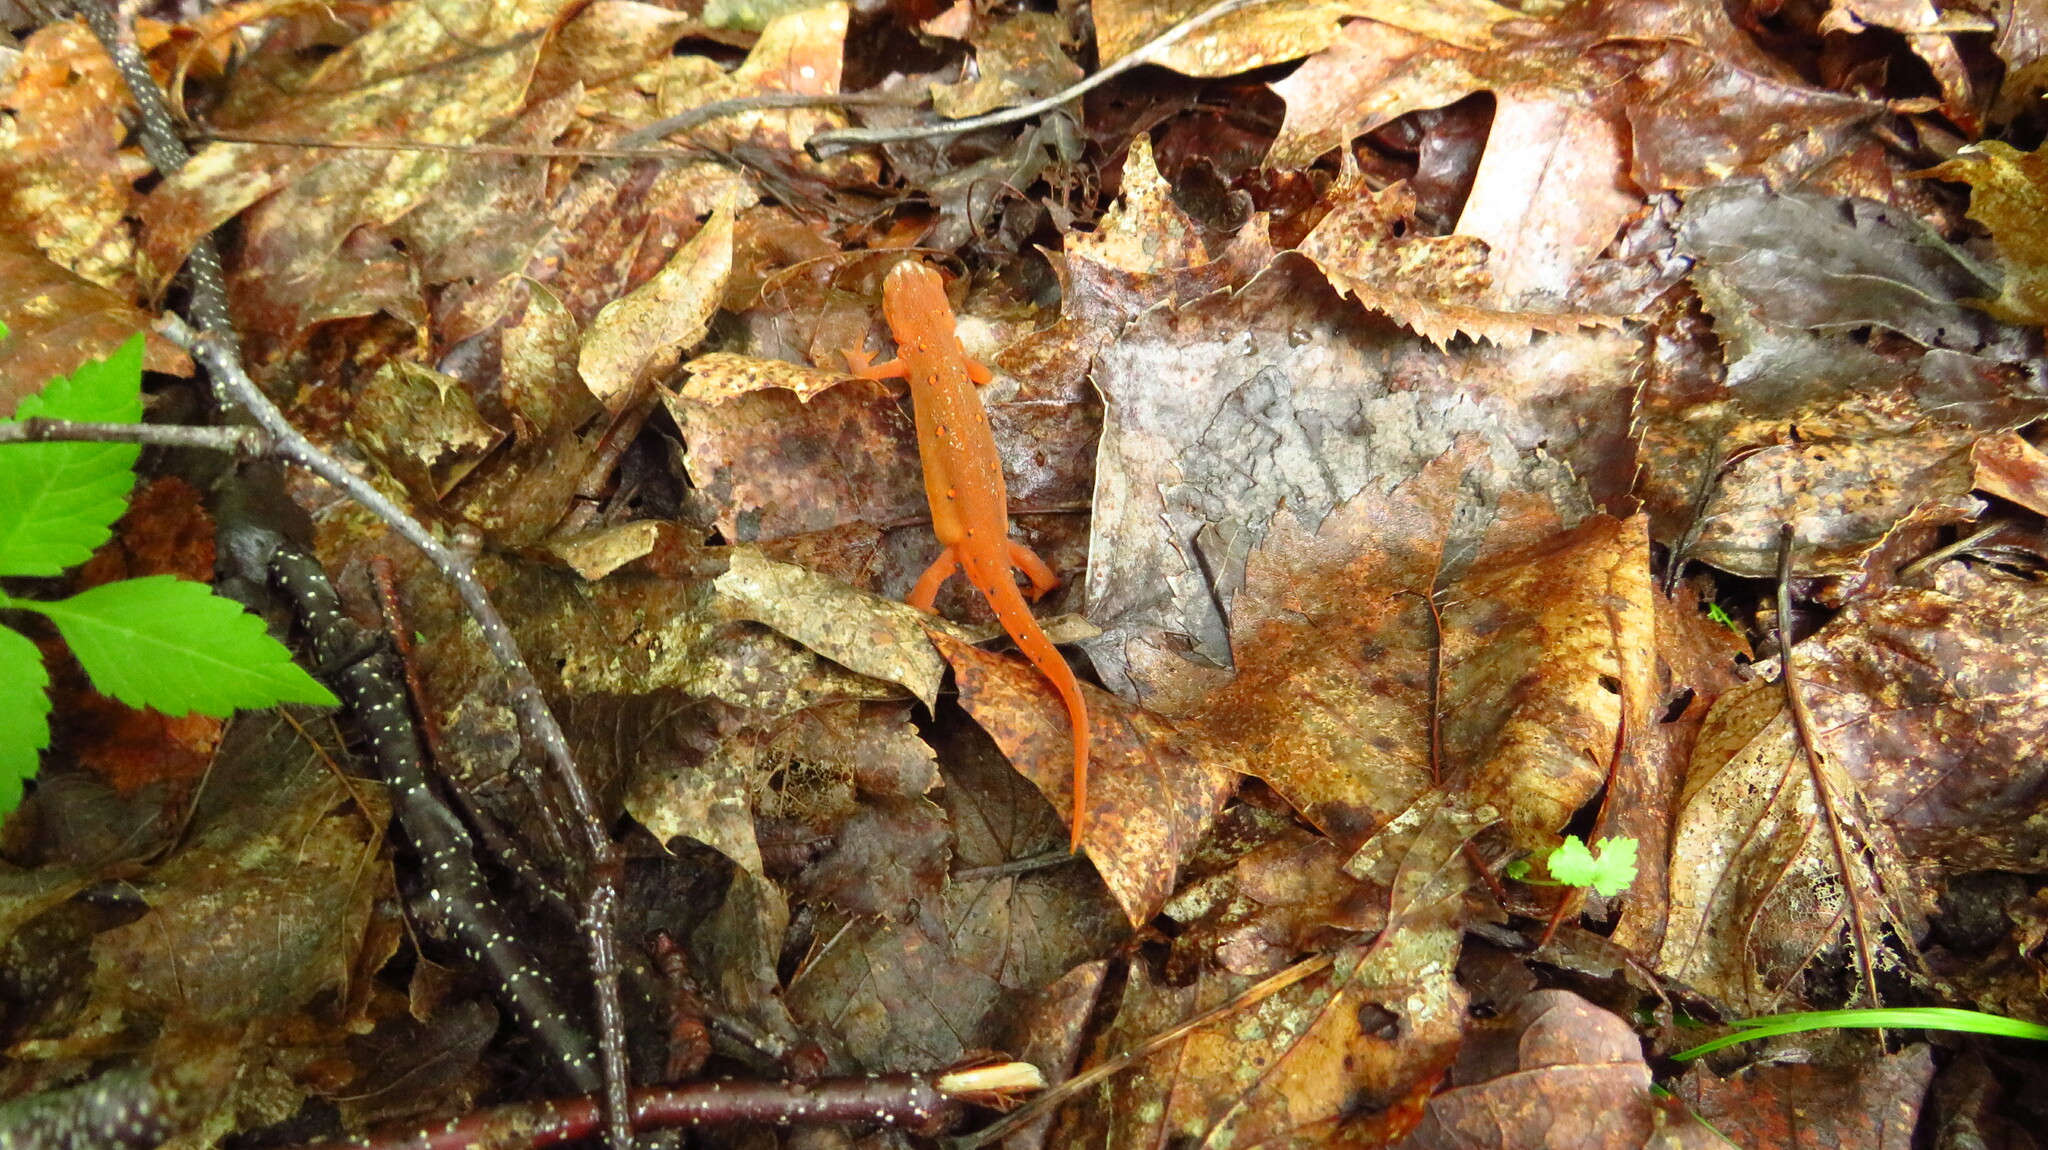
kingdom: Animalia
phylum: Chordata
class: Amphibia
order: Caudata
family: Salamandridae
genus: Notophthalmus
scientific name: Notophthalmus viridescens
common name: Eastern newt
